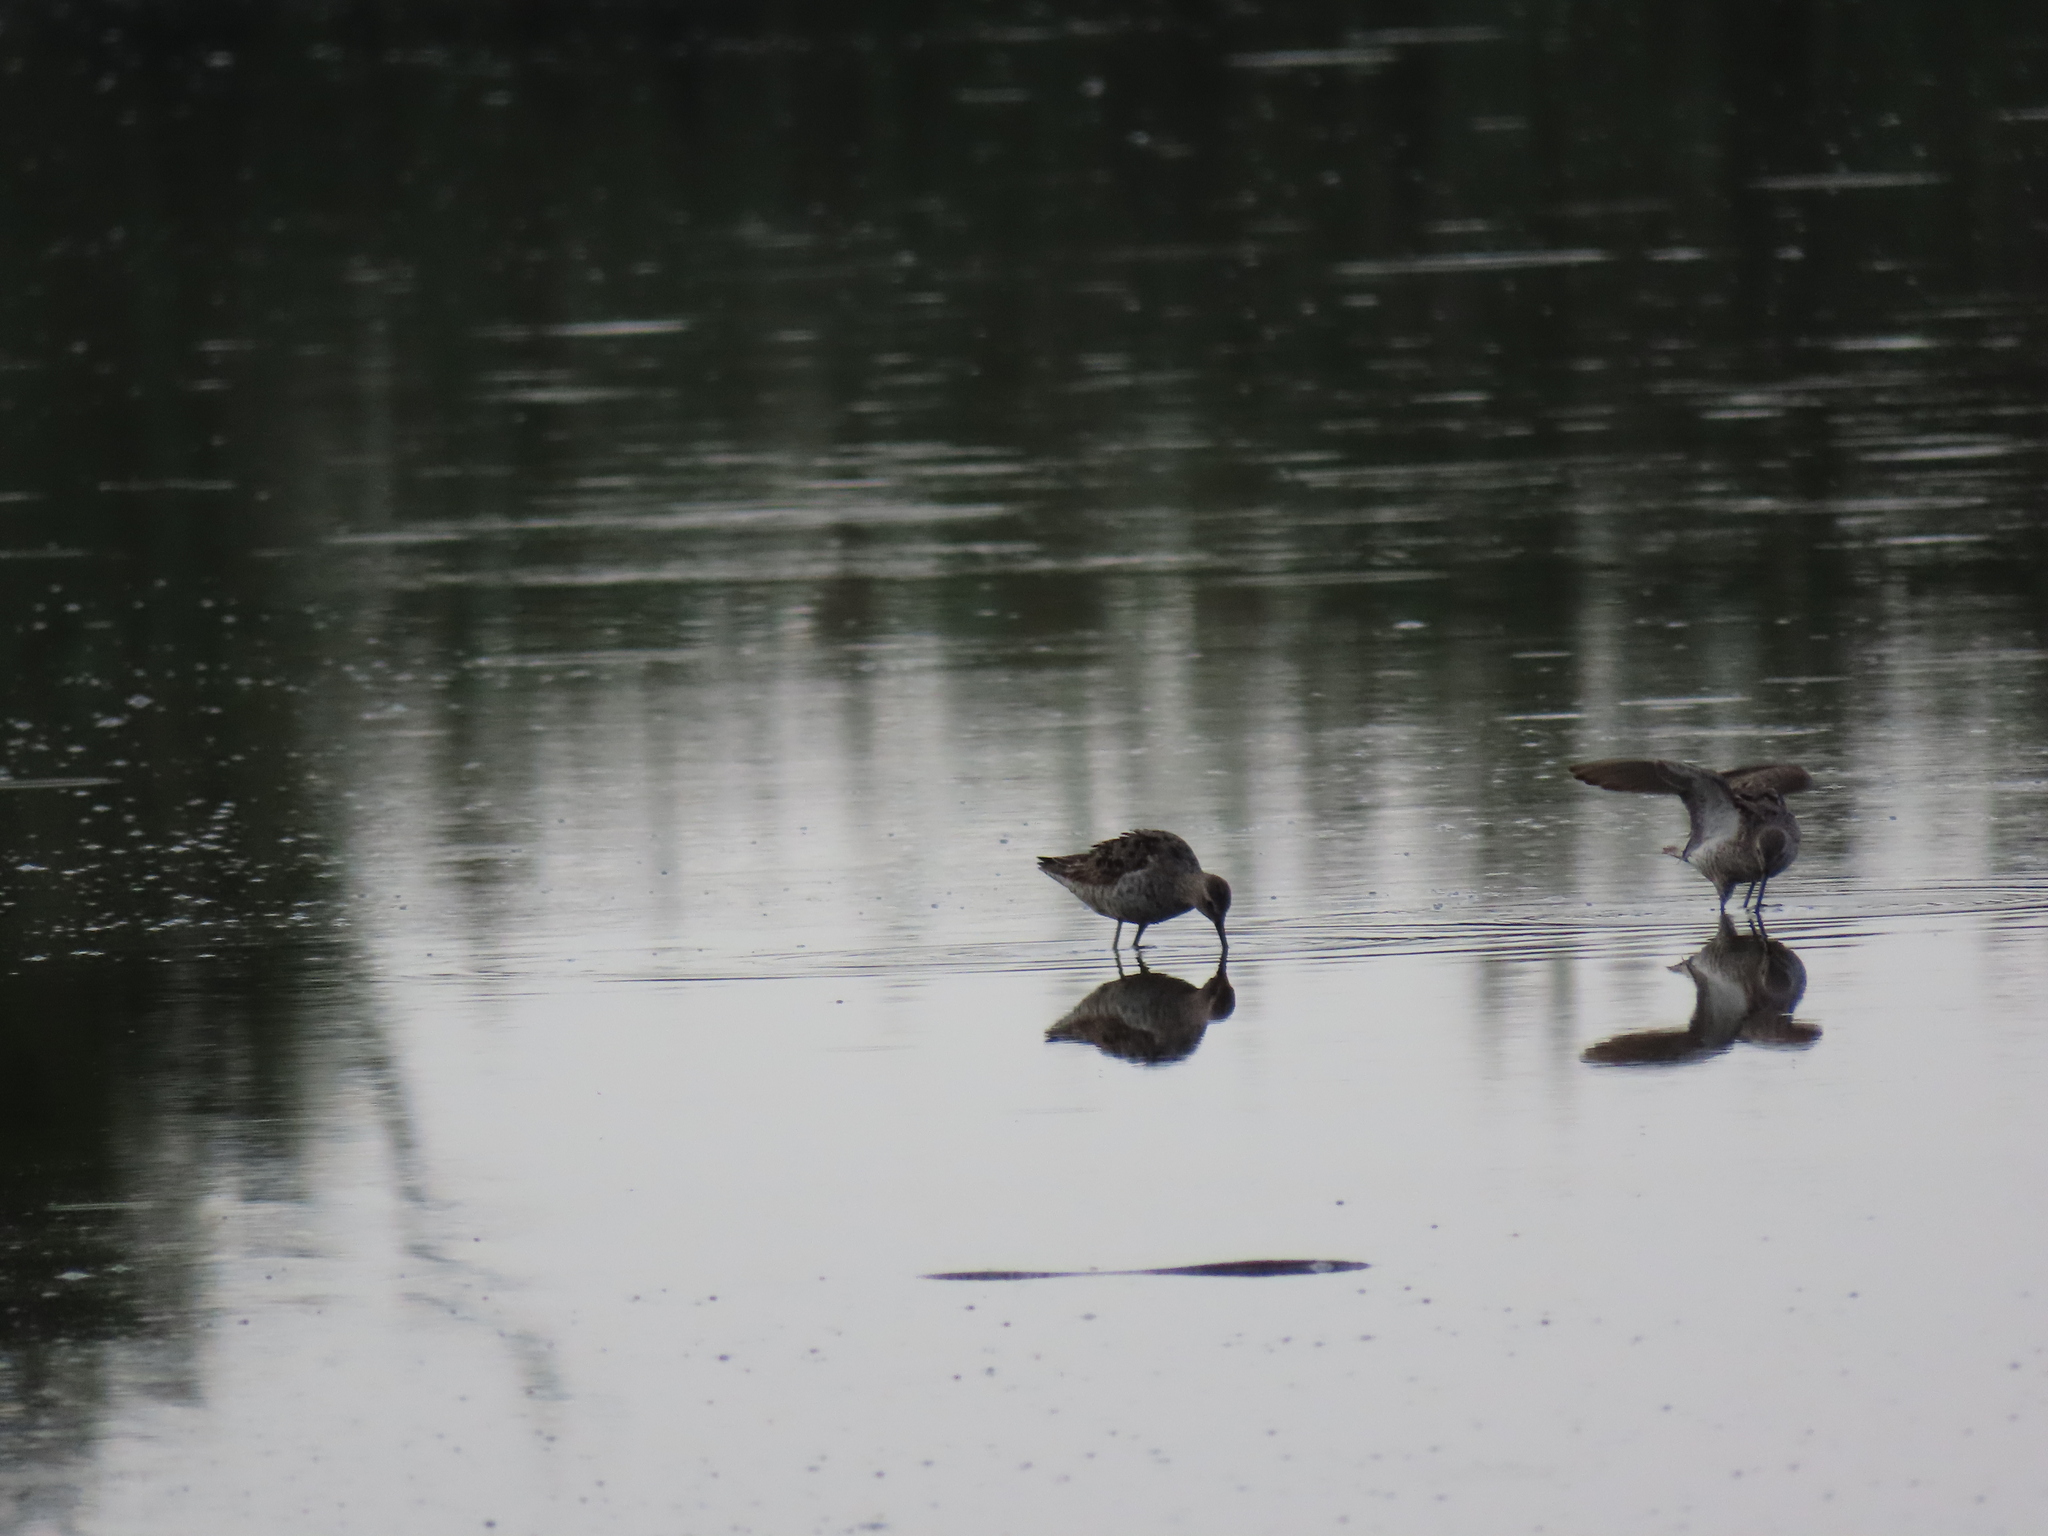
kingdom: Animalia
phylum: Chordata
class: Aves
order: Charadriiformes
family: Scolopacidae
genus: Calidris
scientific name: Calidris himantopus
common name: Stilt sandpiper
